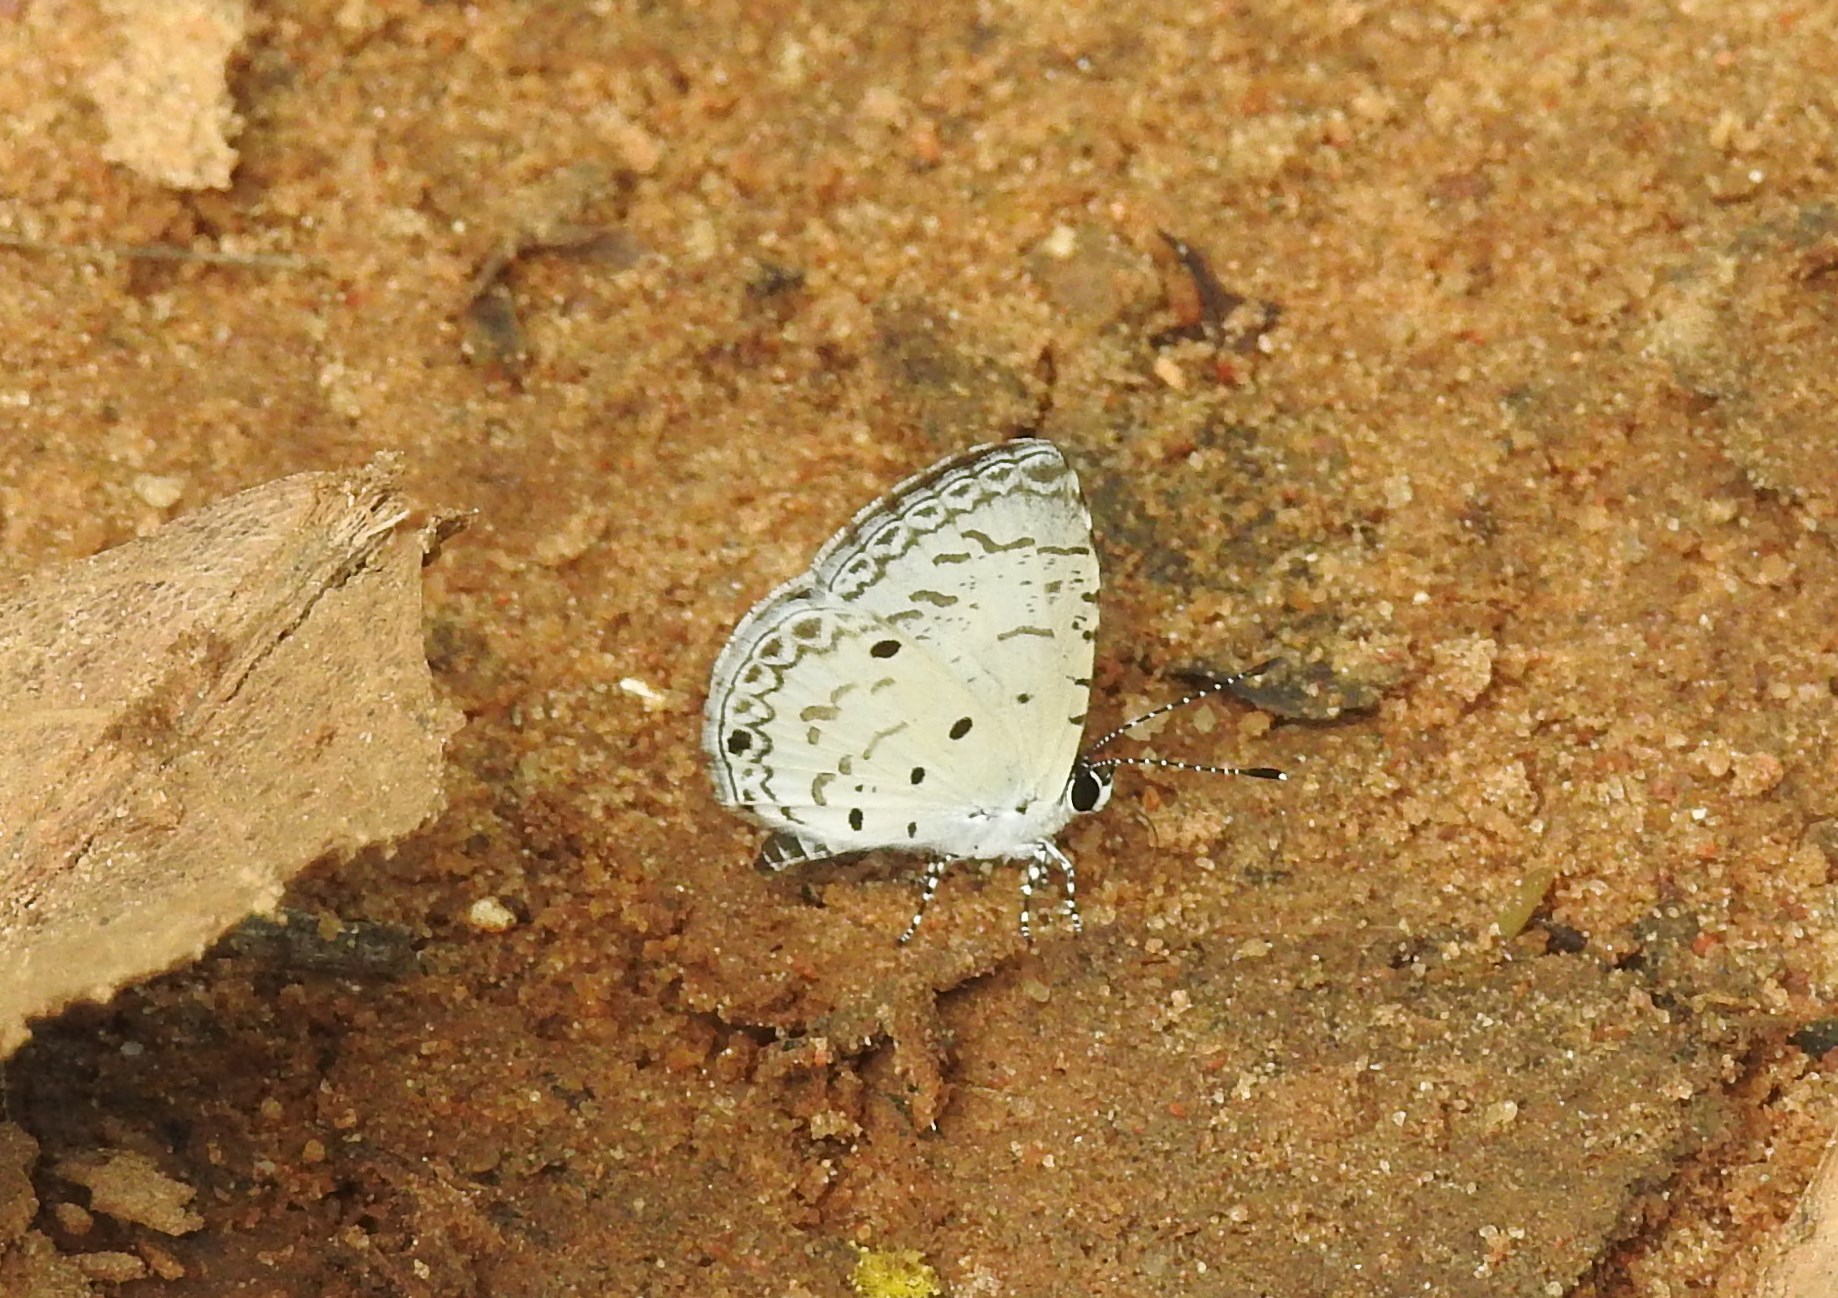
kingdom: Animalia
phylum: Arthropoda
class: Insecta
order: Lepidoptera
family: Lycaenidae
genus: Megisba
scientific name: Megisba malaya
